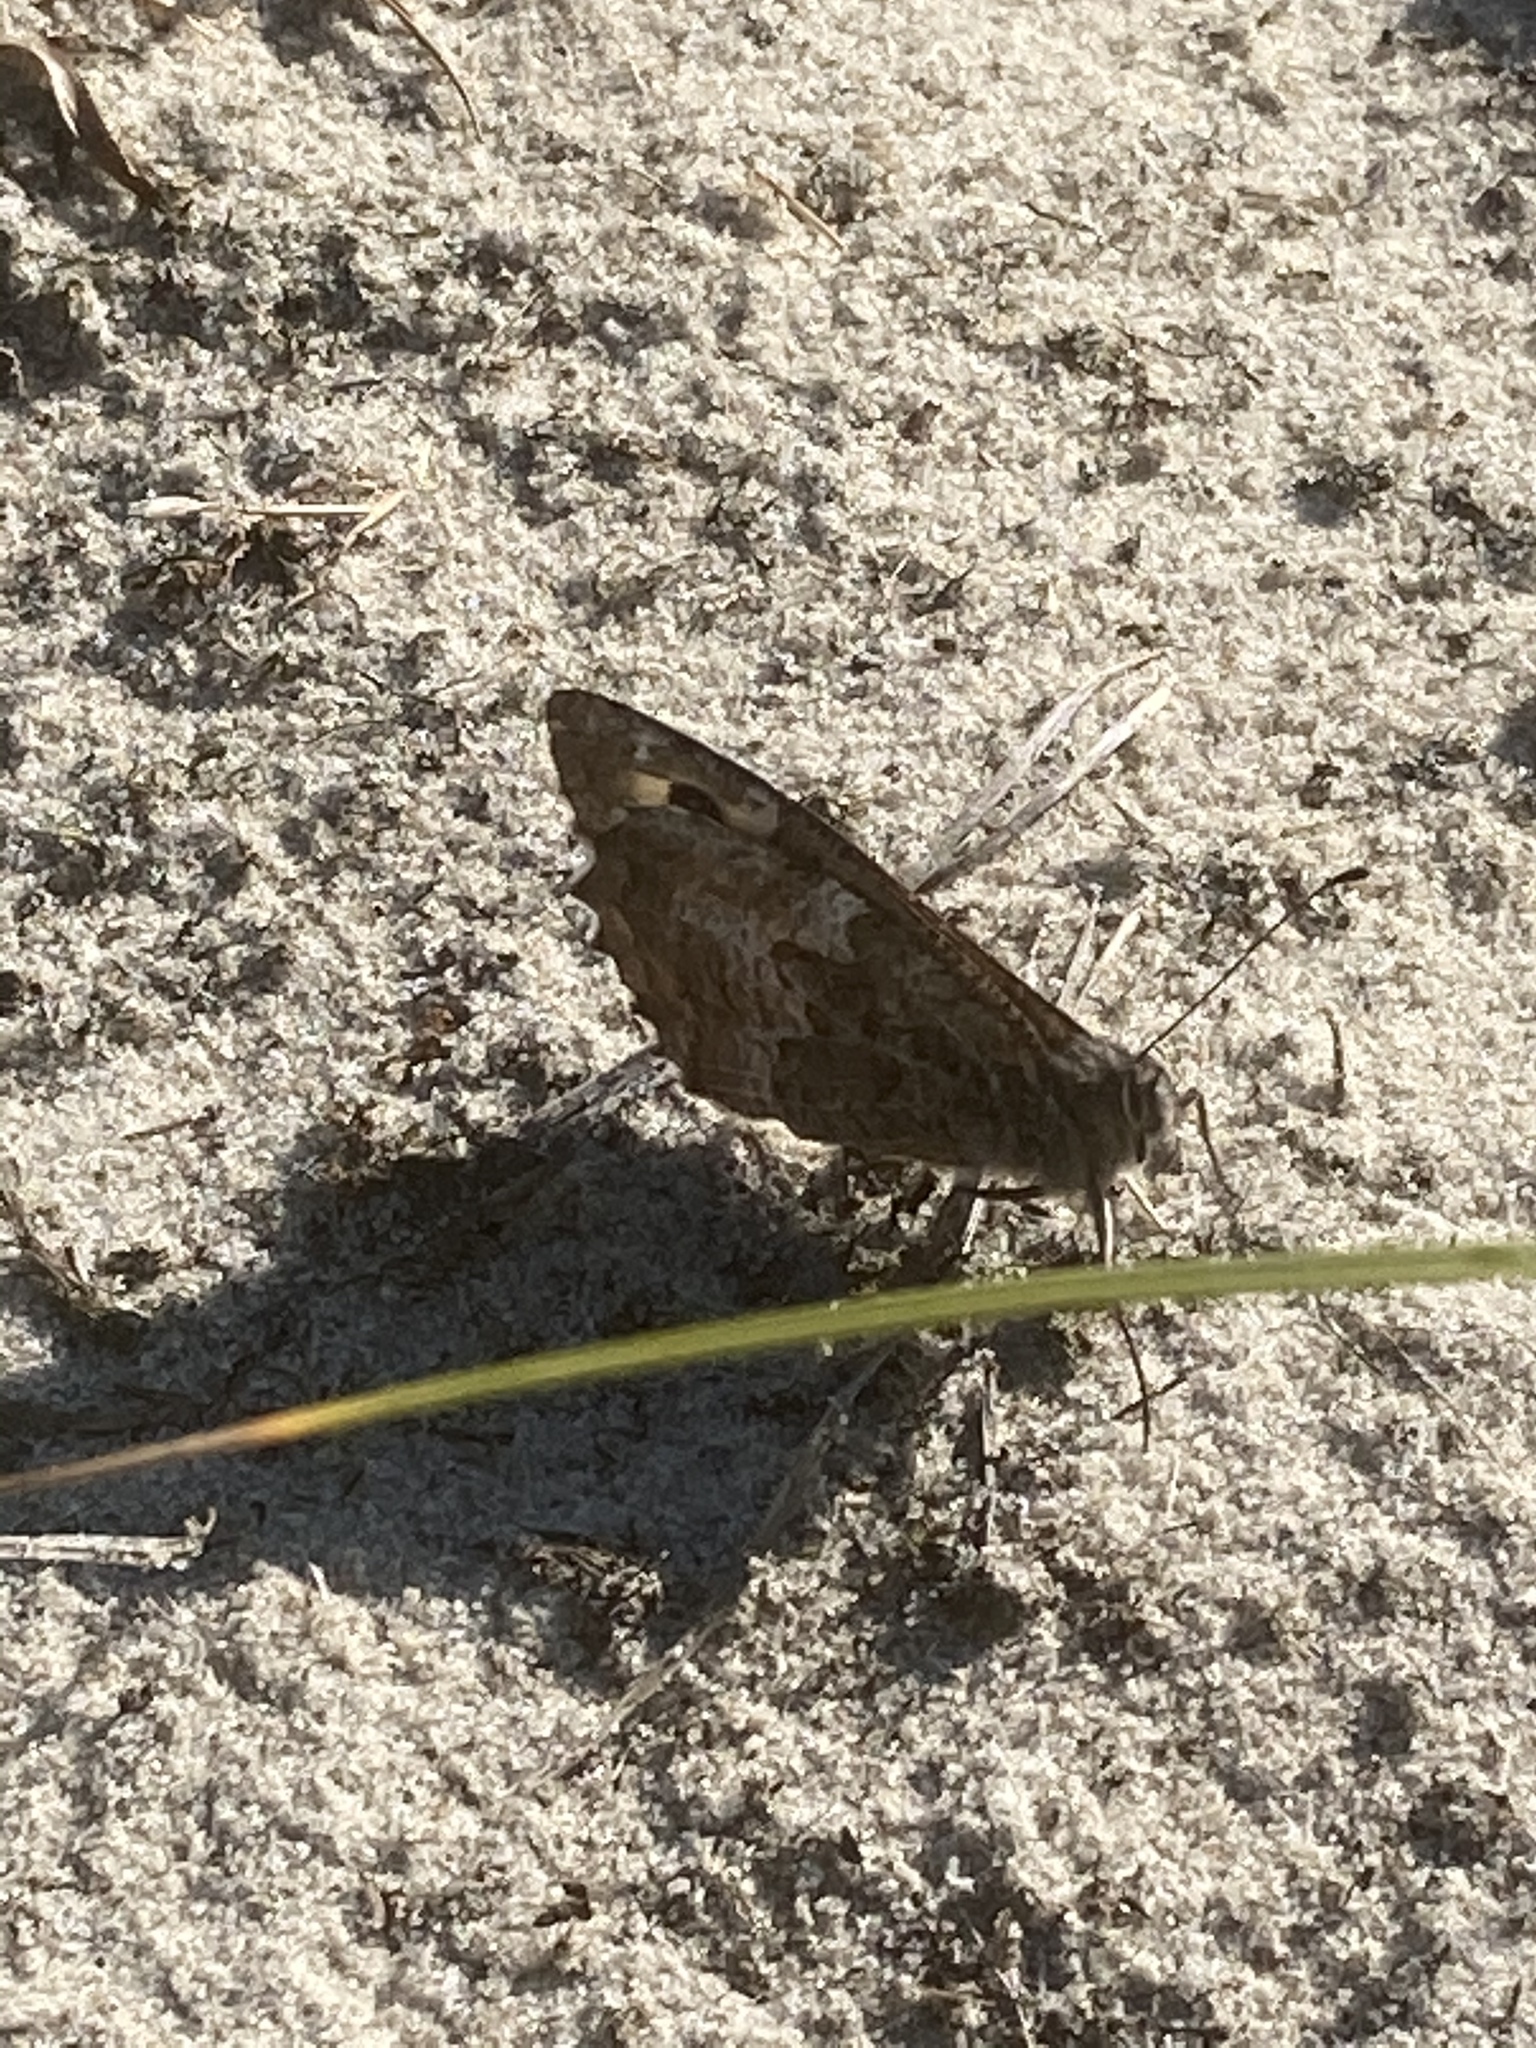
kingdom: Animalia
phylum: Arthropoda
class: Insecta
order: Lepidoptera
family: Nymphalidae
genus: Hipparchia
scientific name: Hipparchia semele
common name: Grayling
